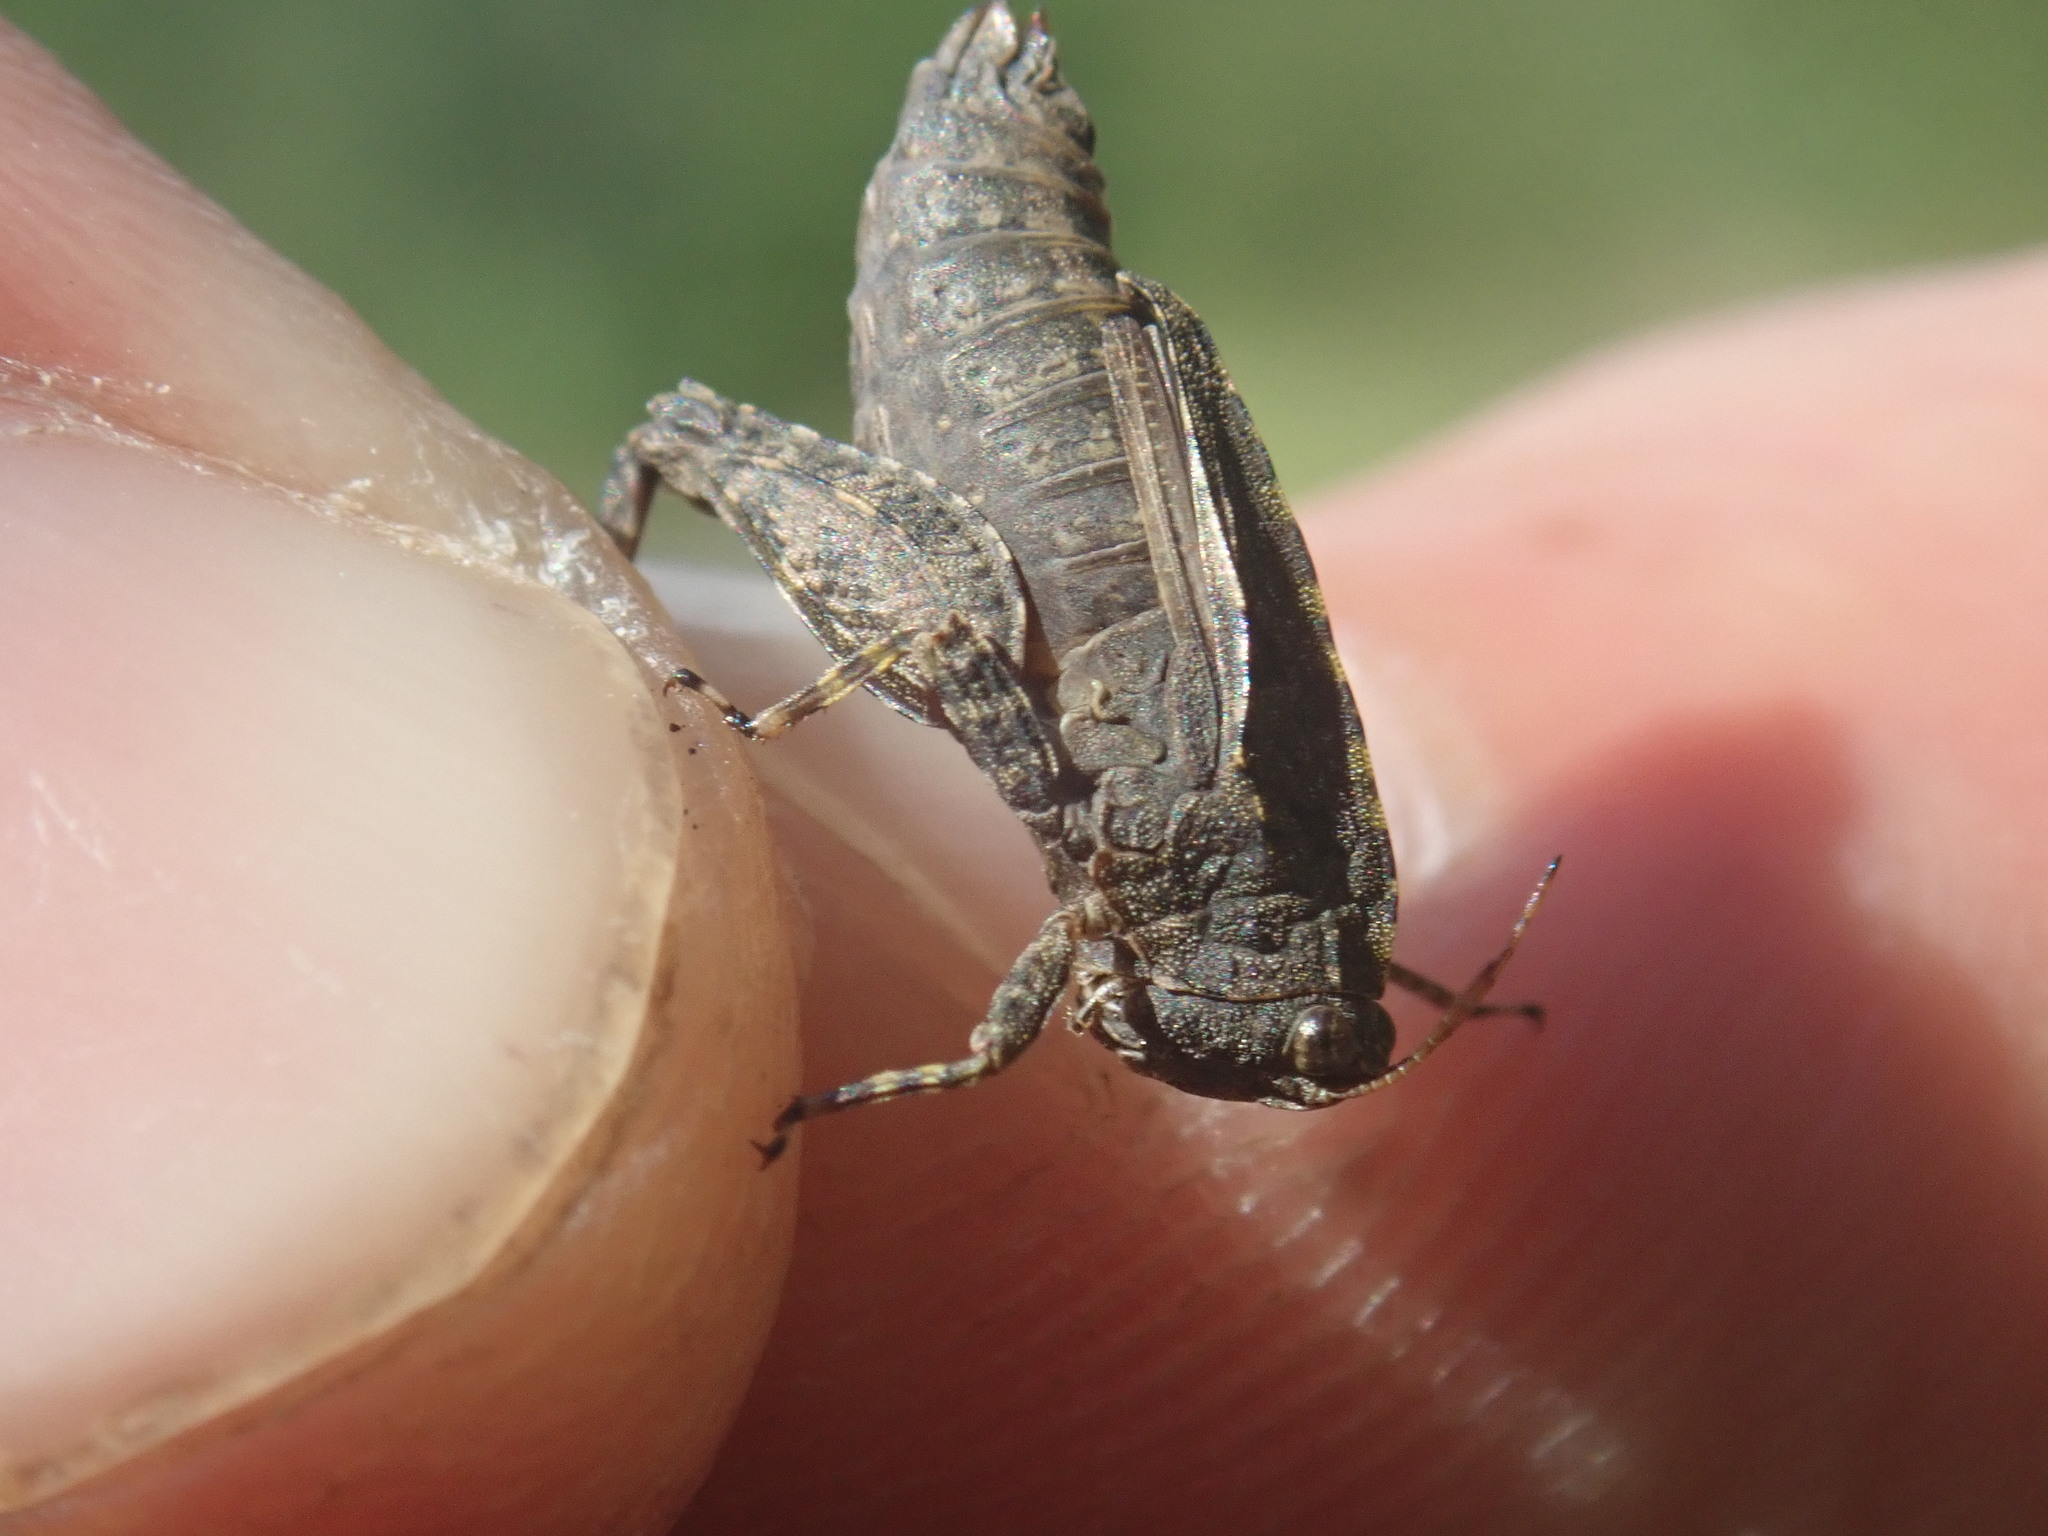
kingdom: Animalia
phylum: Arthropoda
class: Insecta
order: Orthoptera
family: Tetrigidae
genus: Tetrix
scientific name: Tetrix tenuicornis
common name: Long-horned groundhopper
